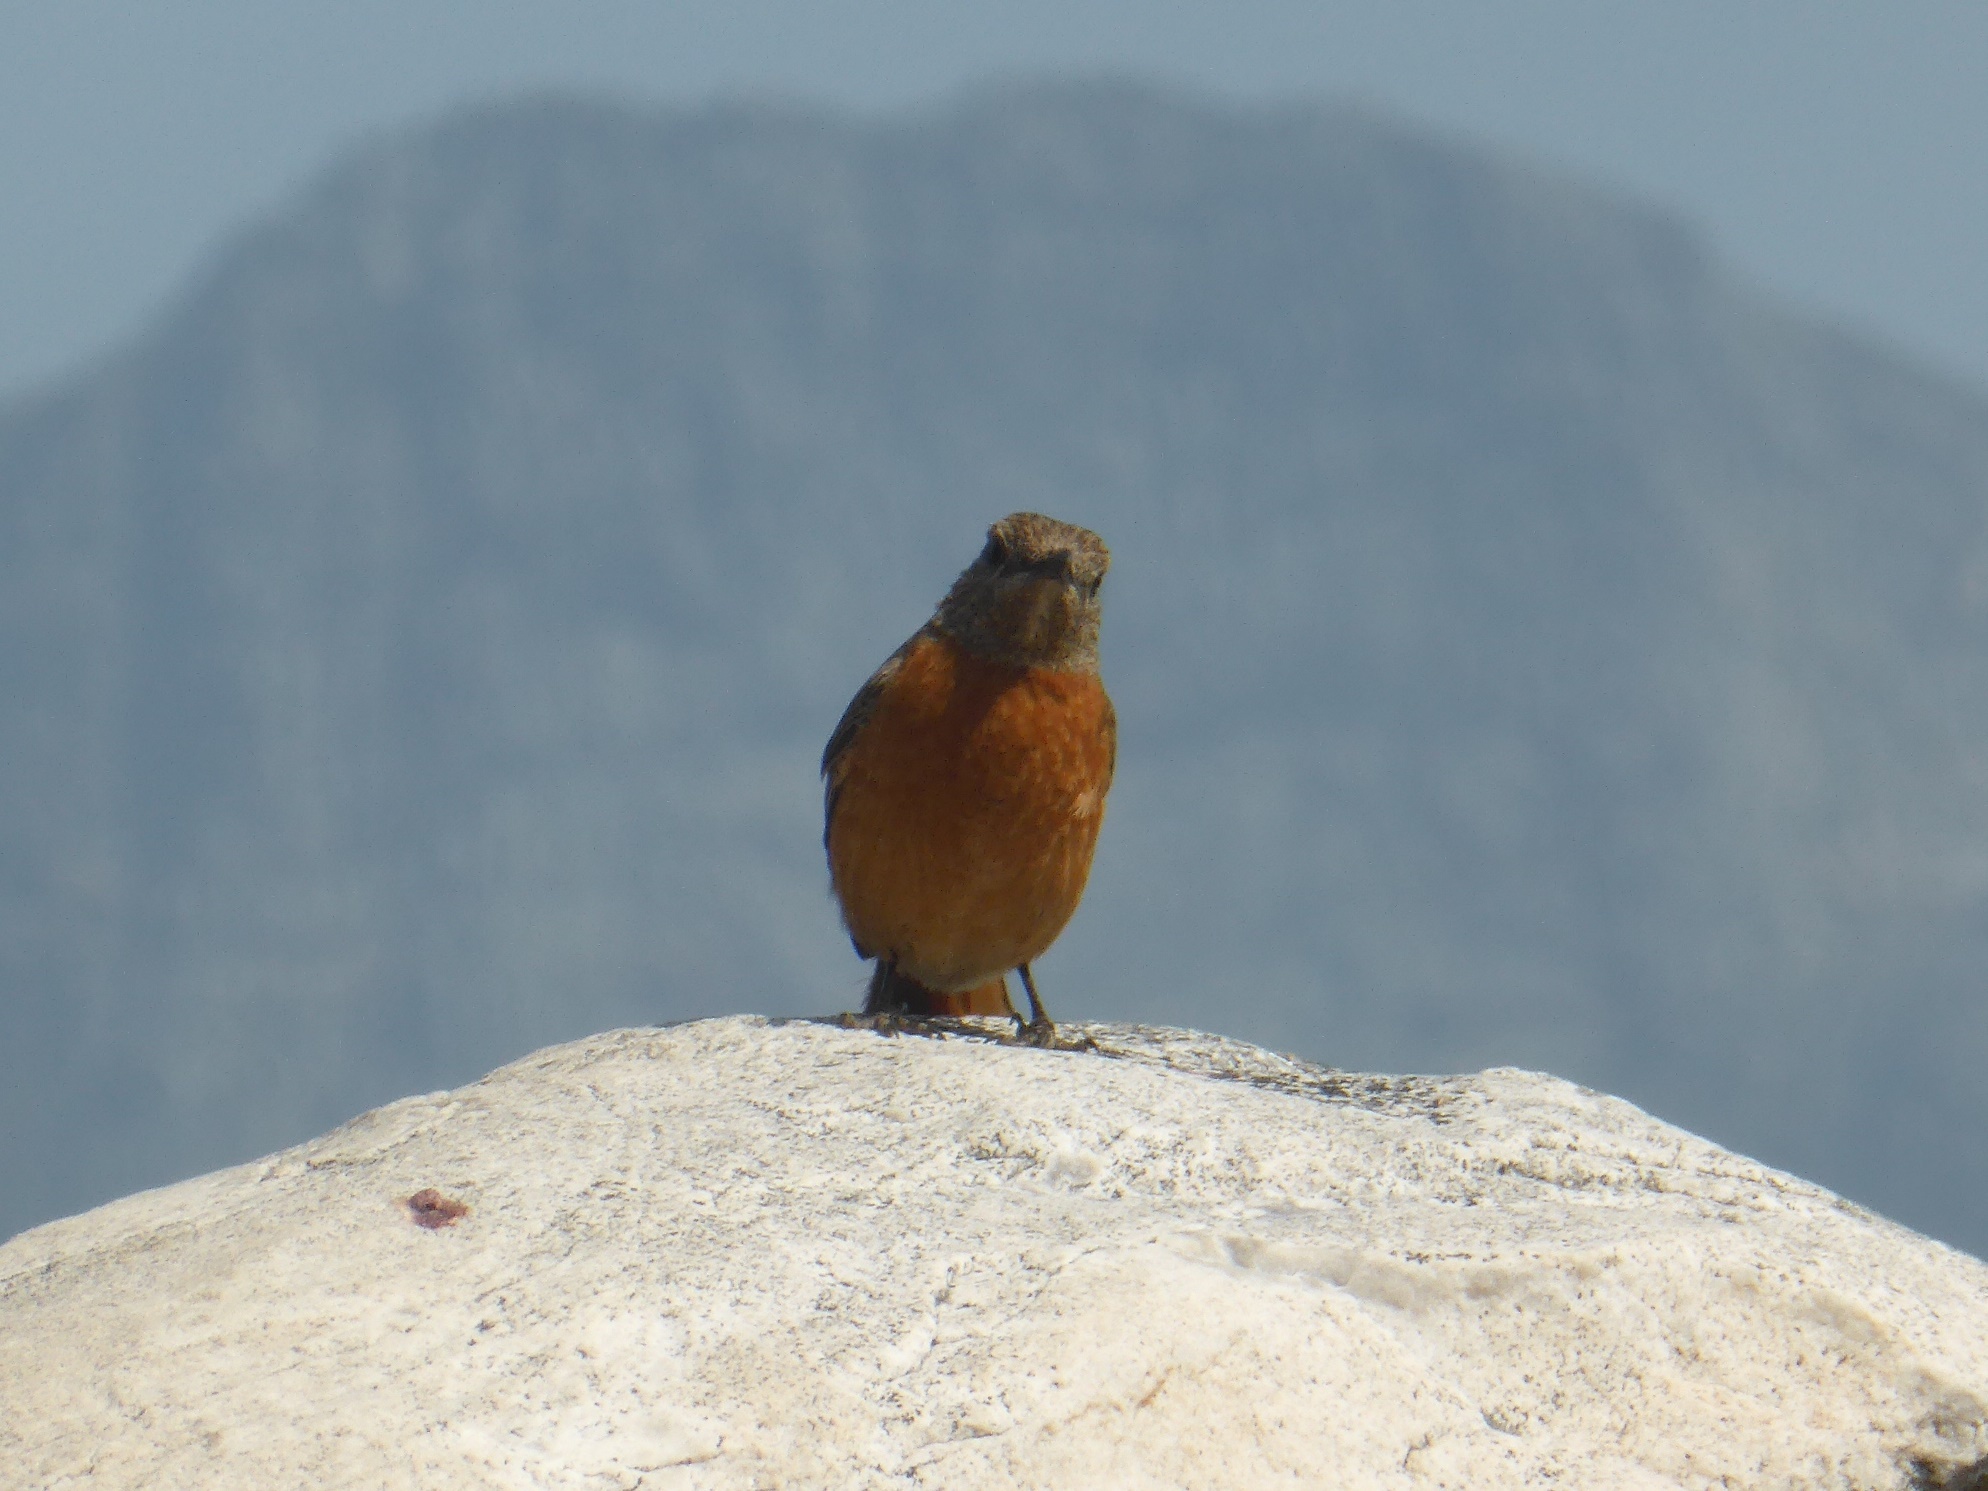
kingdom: Animalia
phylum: Chordata
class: Aves
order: Passeriformes
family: Muscicapidae
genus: Monticola
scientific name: Monticola rupestris
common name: Cape rock thrush
